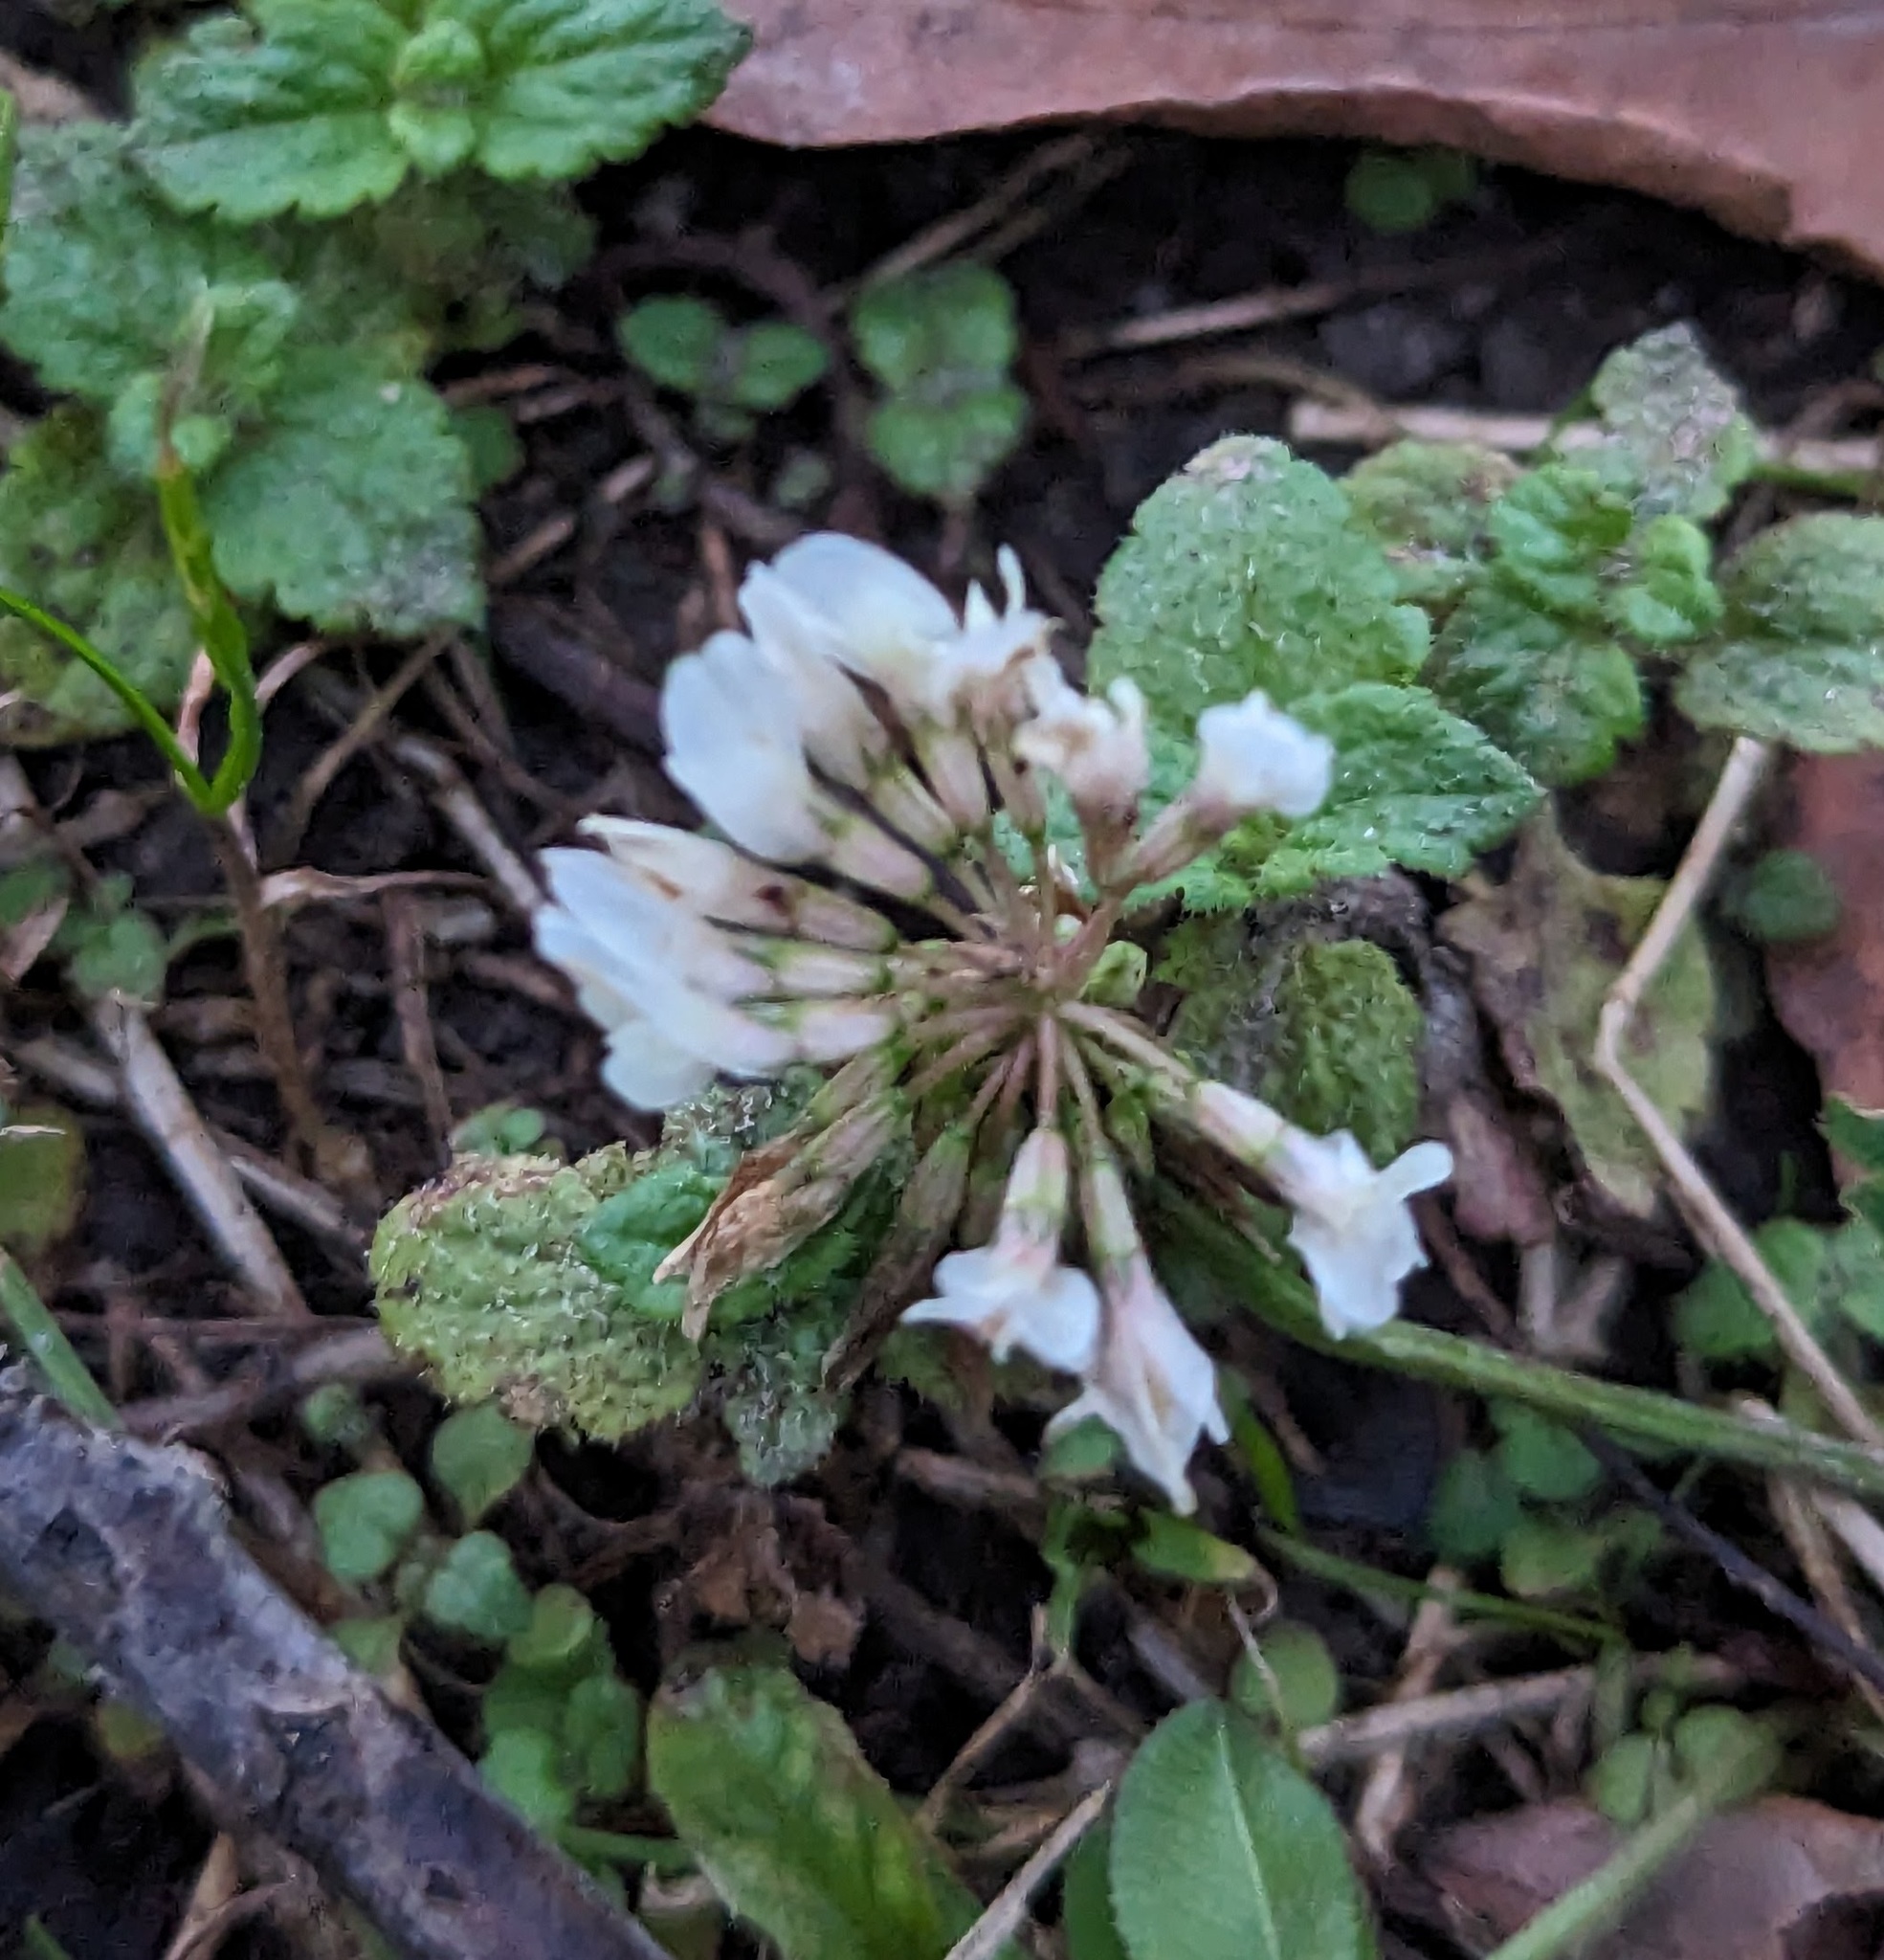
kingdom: Plantae
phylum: Tracheophyta
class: Magnoliopsida
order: Fabales
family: Fabaceae
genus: Trifolium
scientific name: Trifolium repens
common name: White clover
